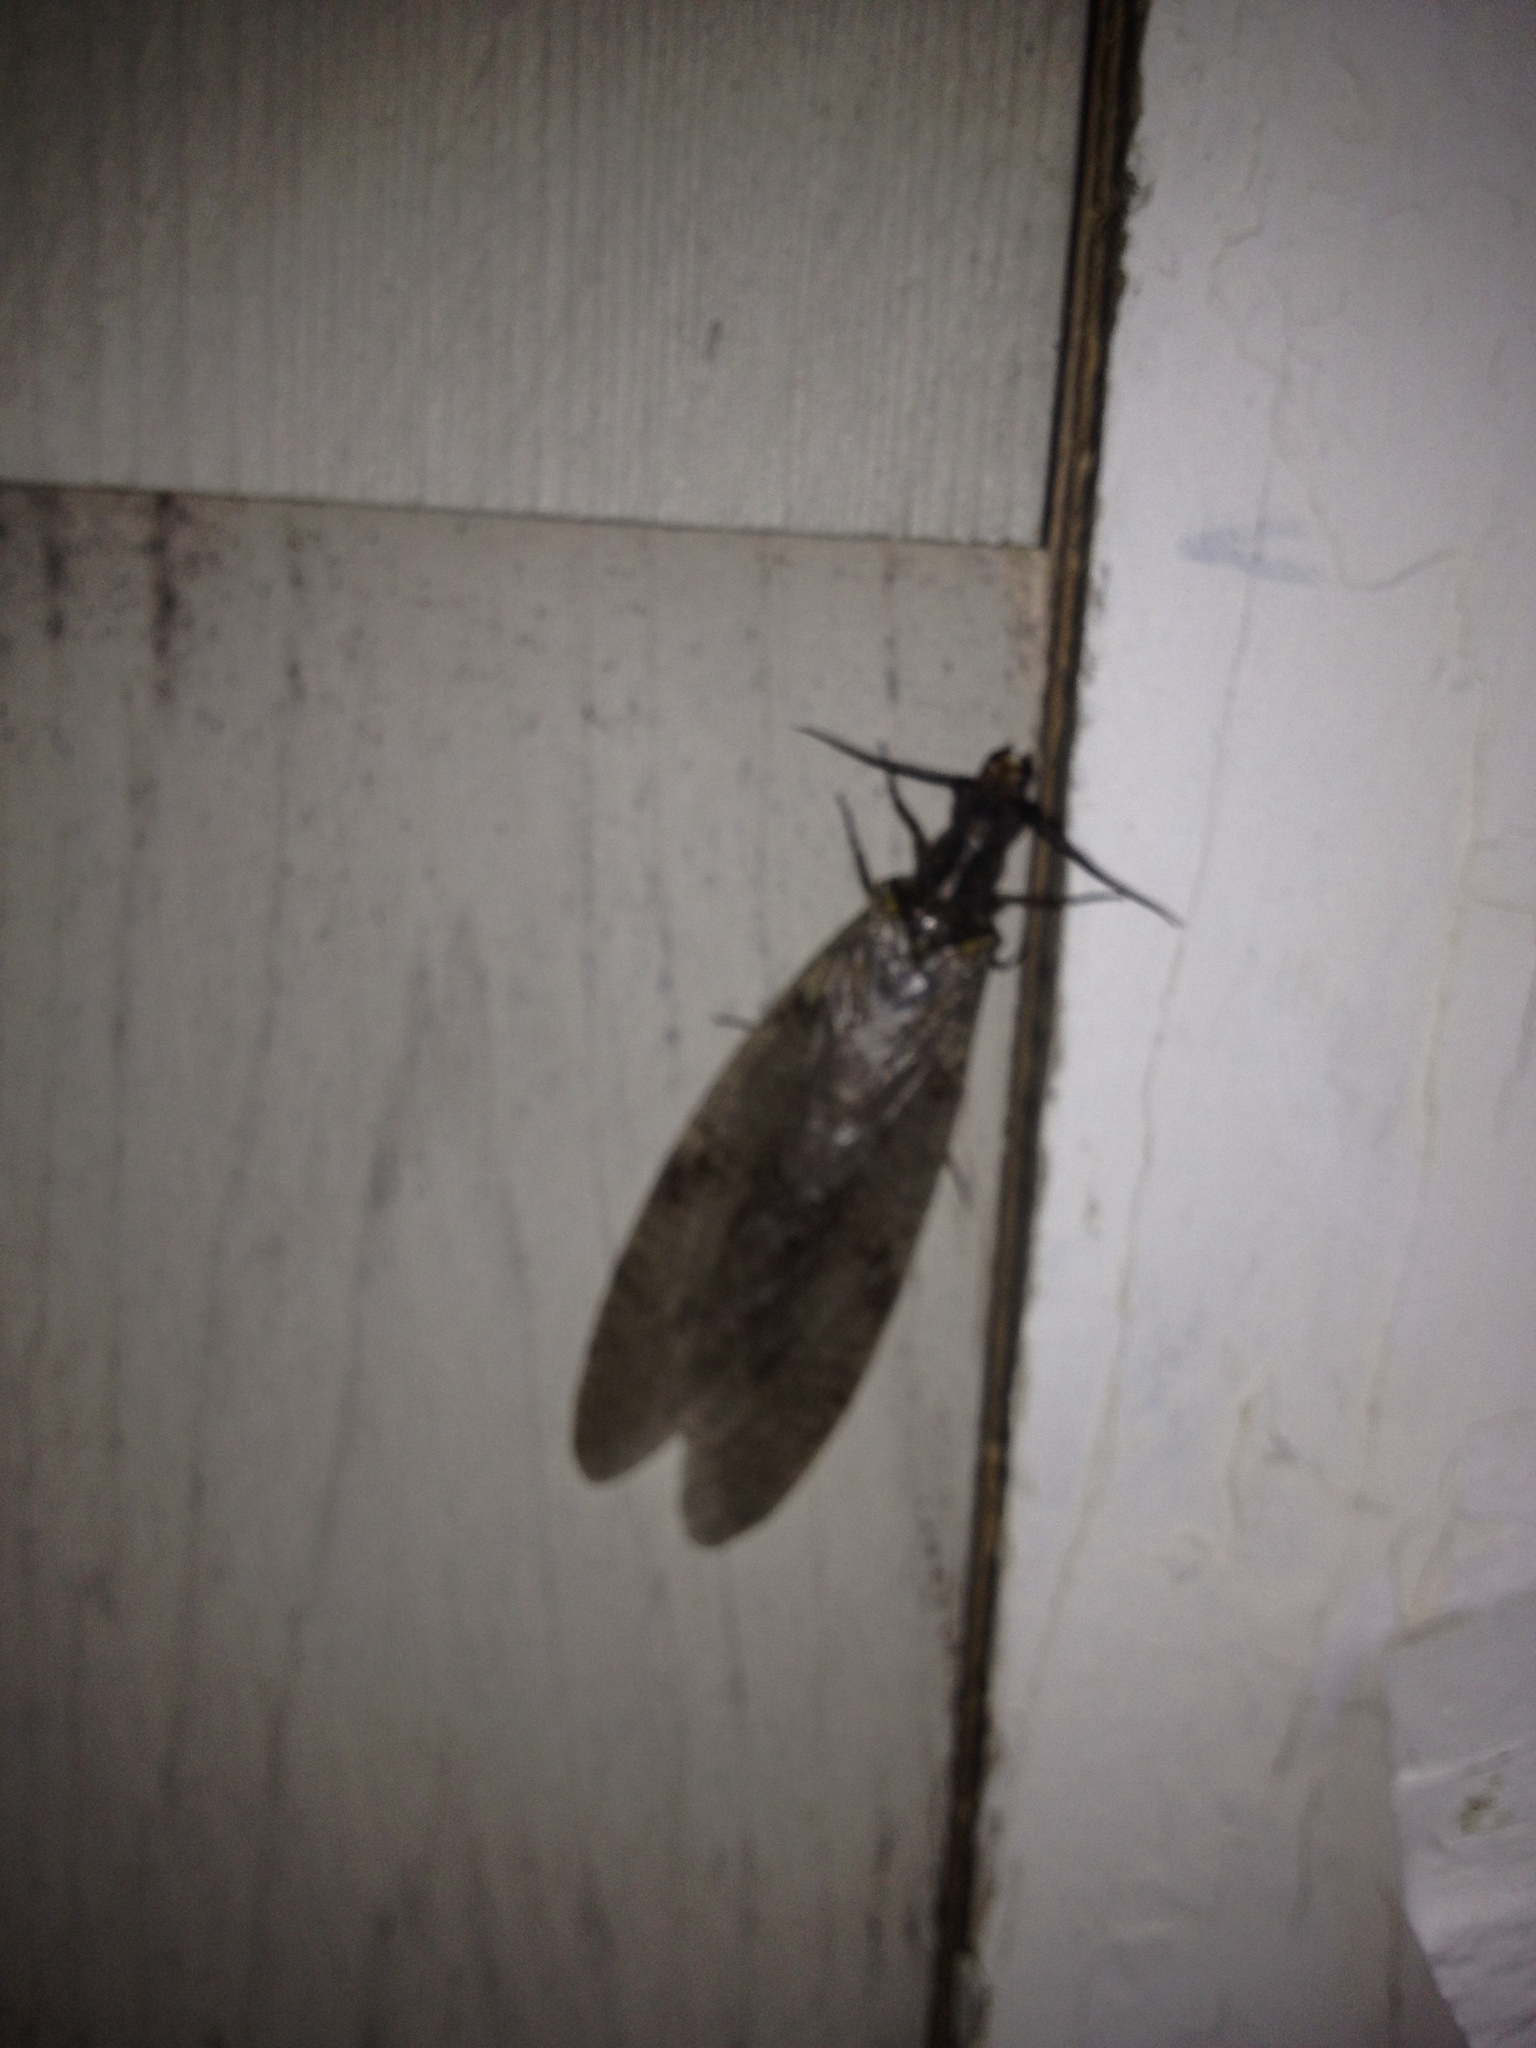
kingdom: Animalia
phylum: Arthropoda
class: Insecta
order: Megaloptera
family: Corydalidae
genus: Chauliodes
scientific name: Chauliodes pectinicornis
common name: Summer fishfly
